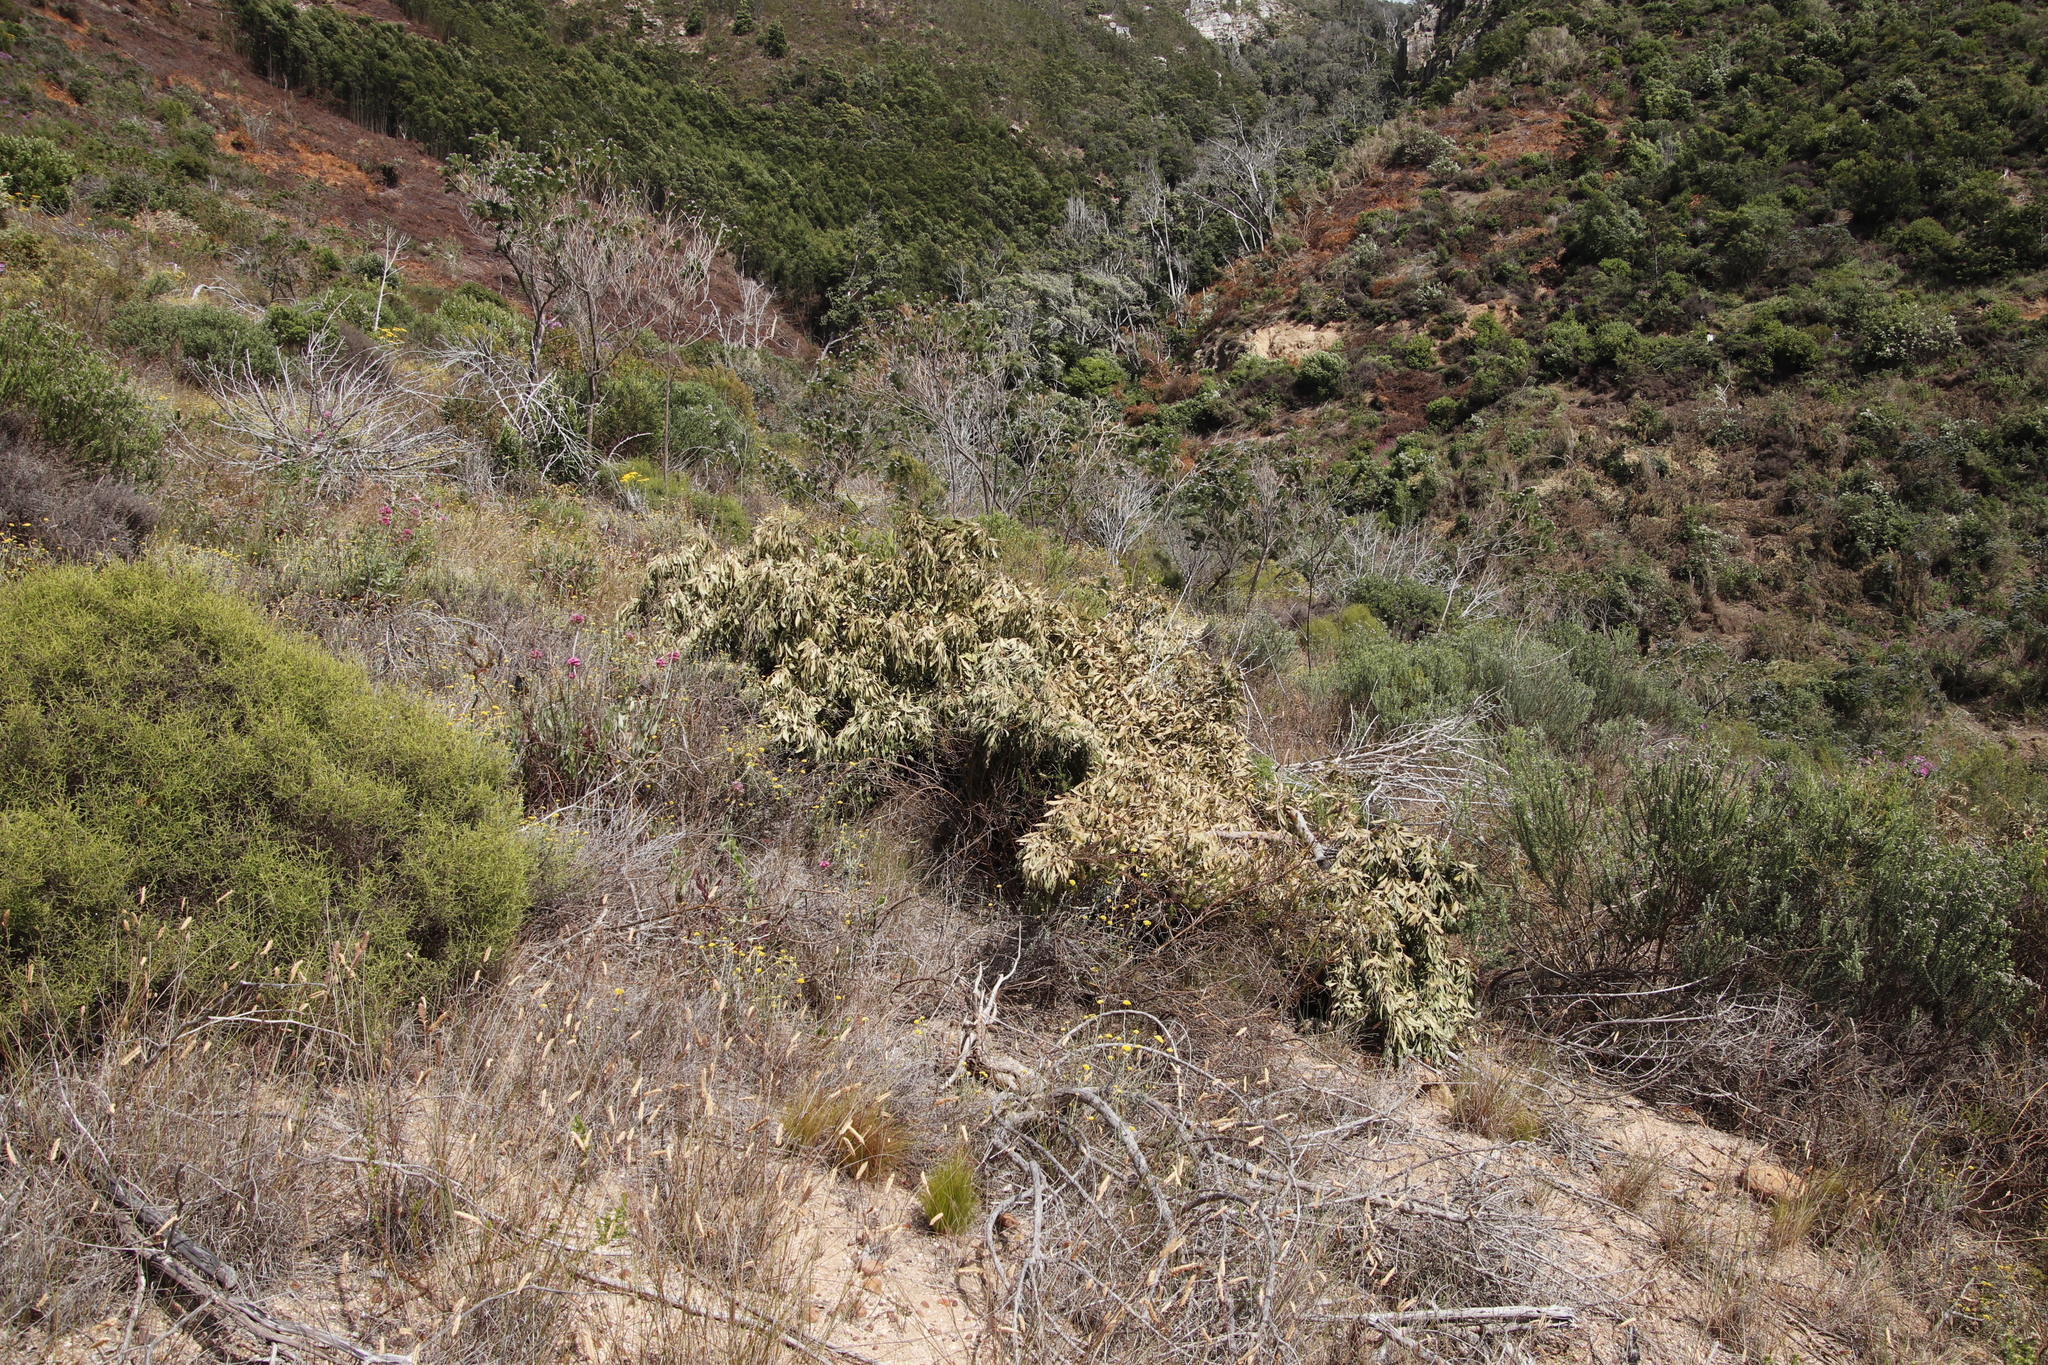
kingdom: Plantae
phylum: Tracheophyta
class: Magnoliopsida
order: Fabales
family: Fabaceae
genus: Acacia
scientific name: Acacia melanoxylon
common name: Blackwood
